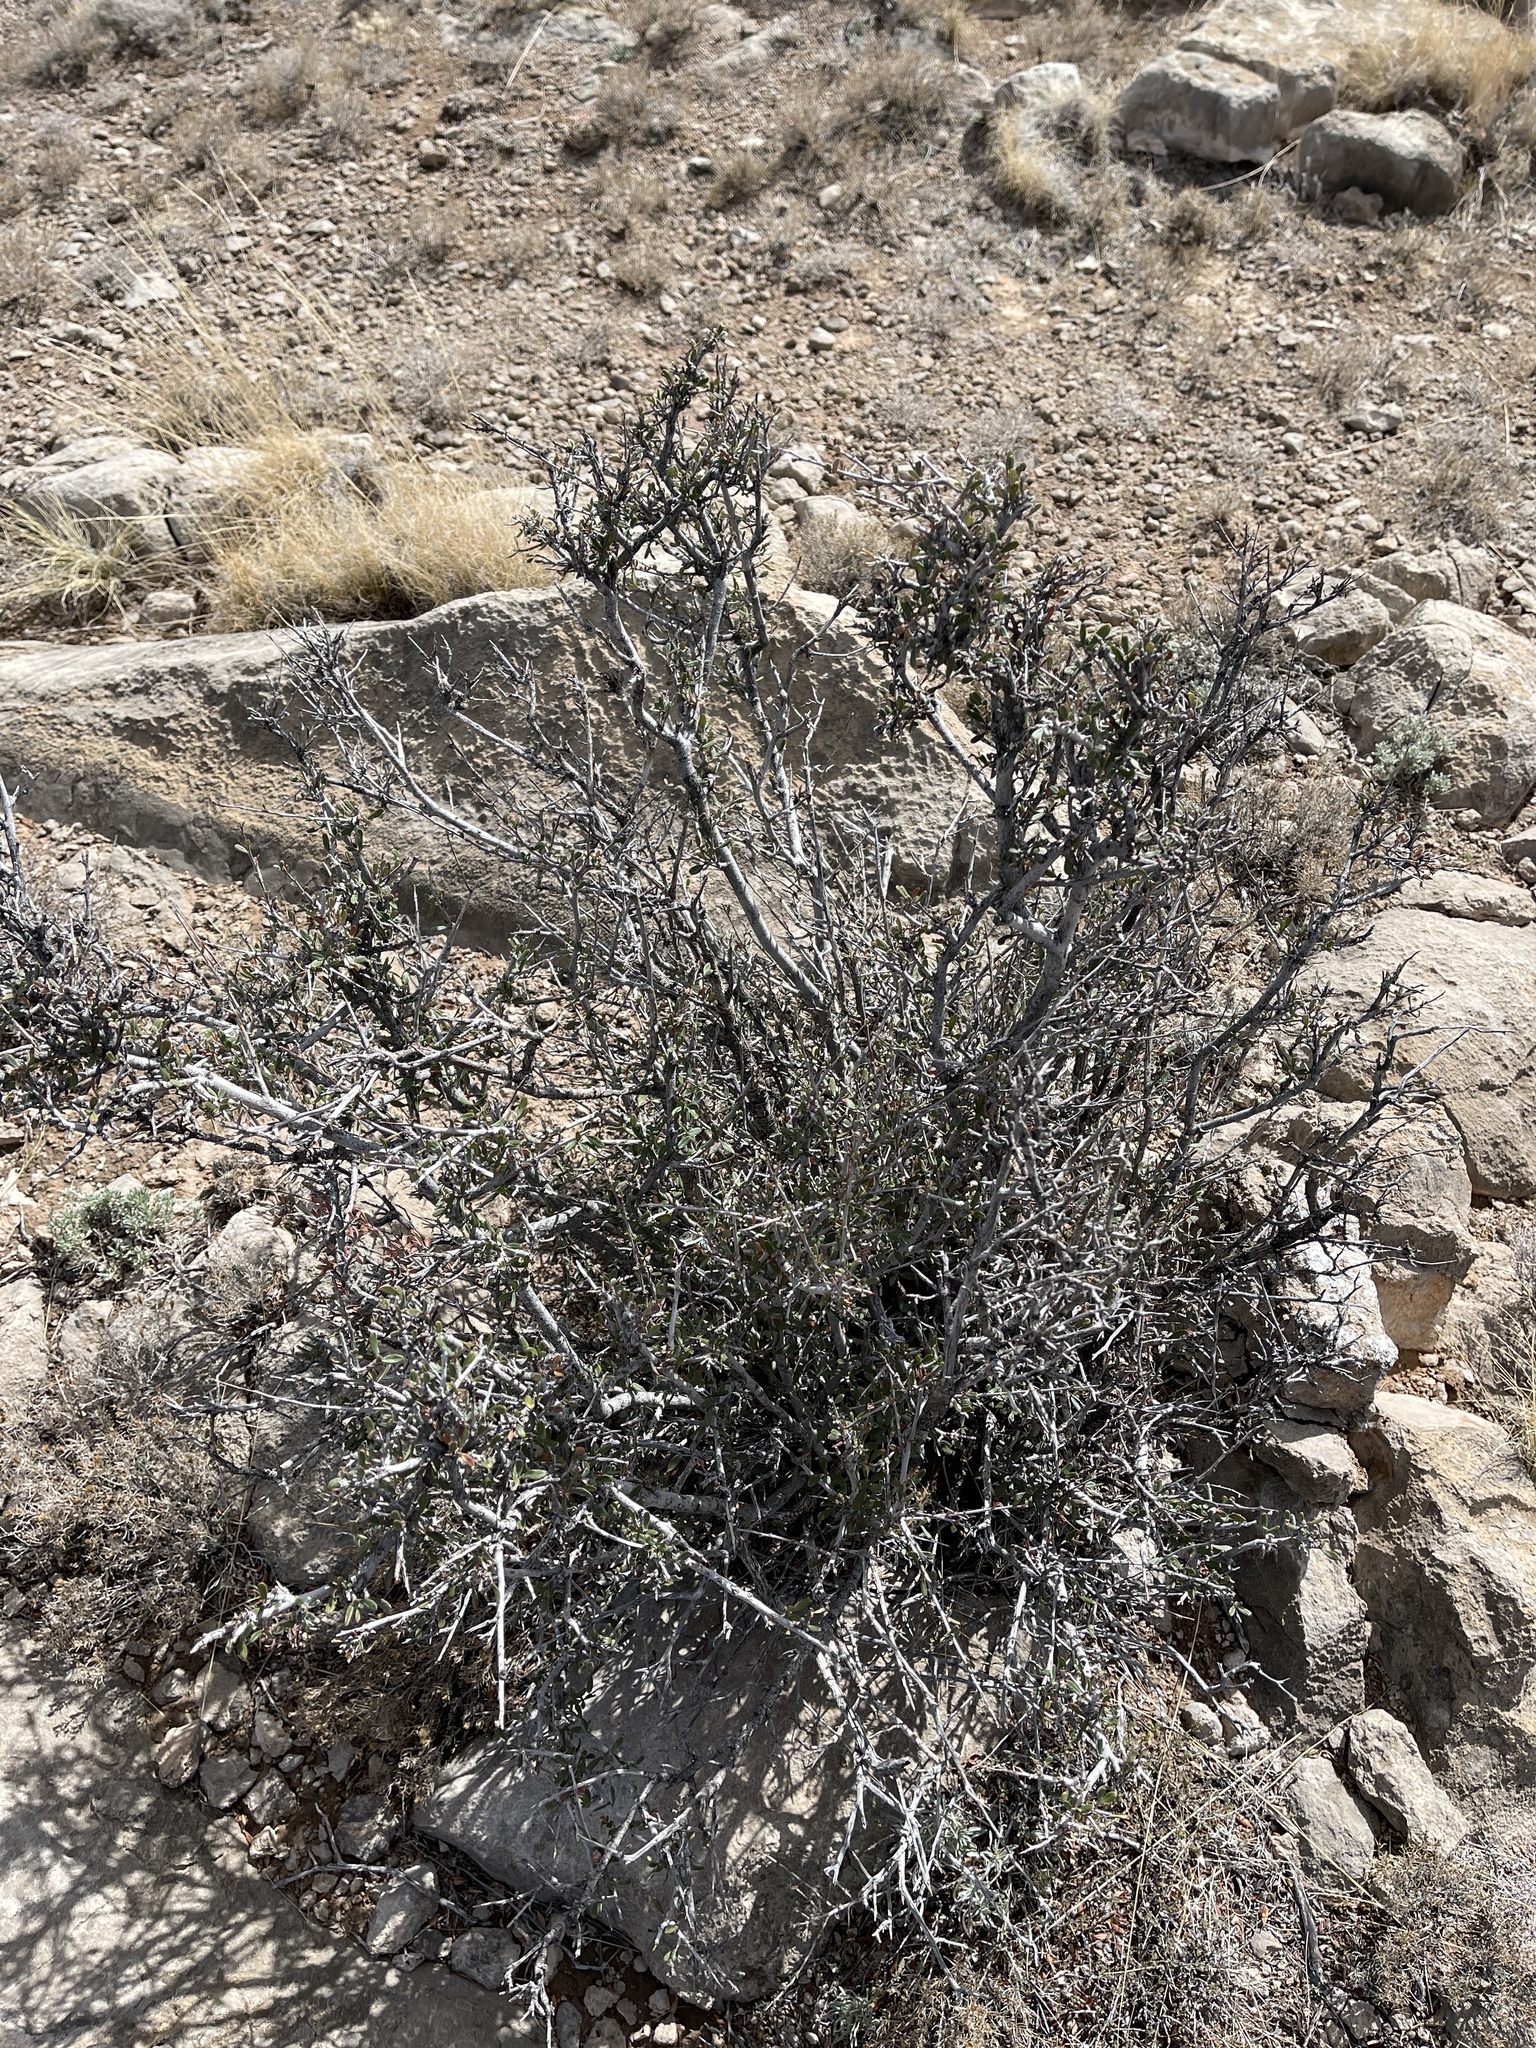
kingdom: Plantae
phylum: Tracheophyta
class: Magnoliopsida
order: Rosales
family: Rosaceae
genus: Cercocarpus
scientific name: Cercocarpus breviflorus
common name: Wright's mountain-mahogany
